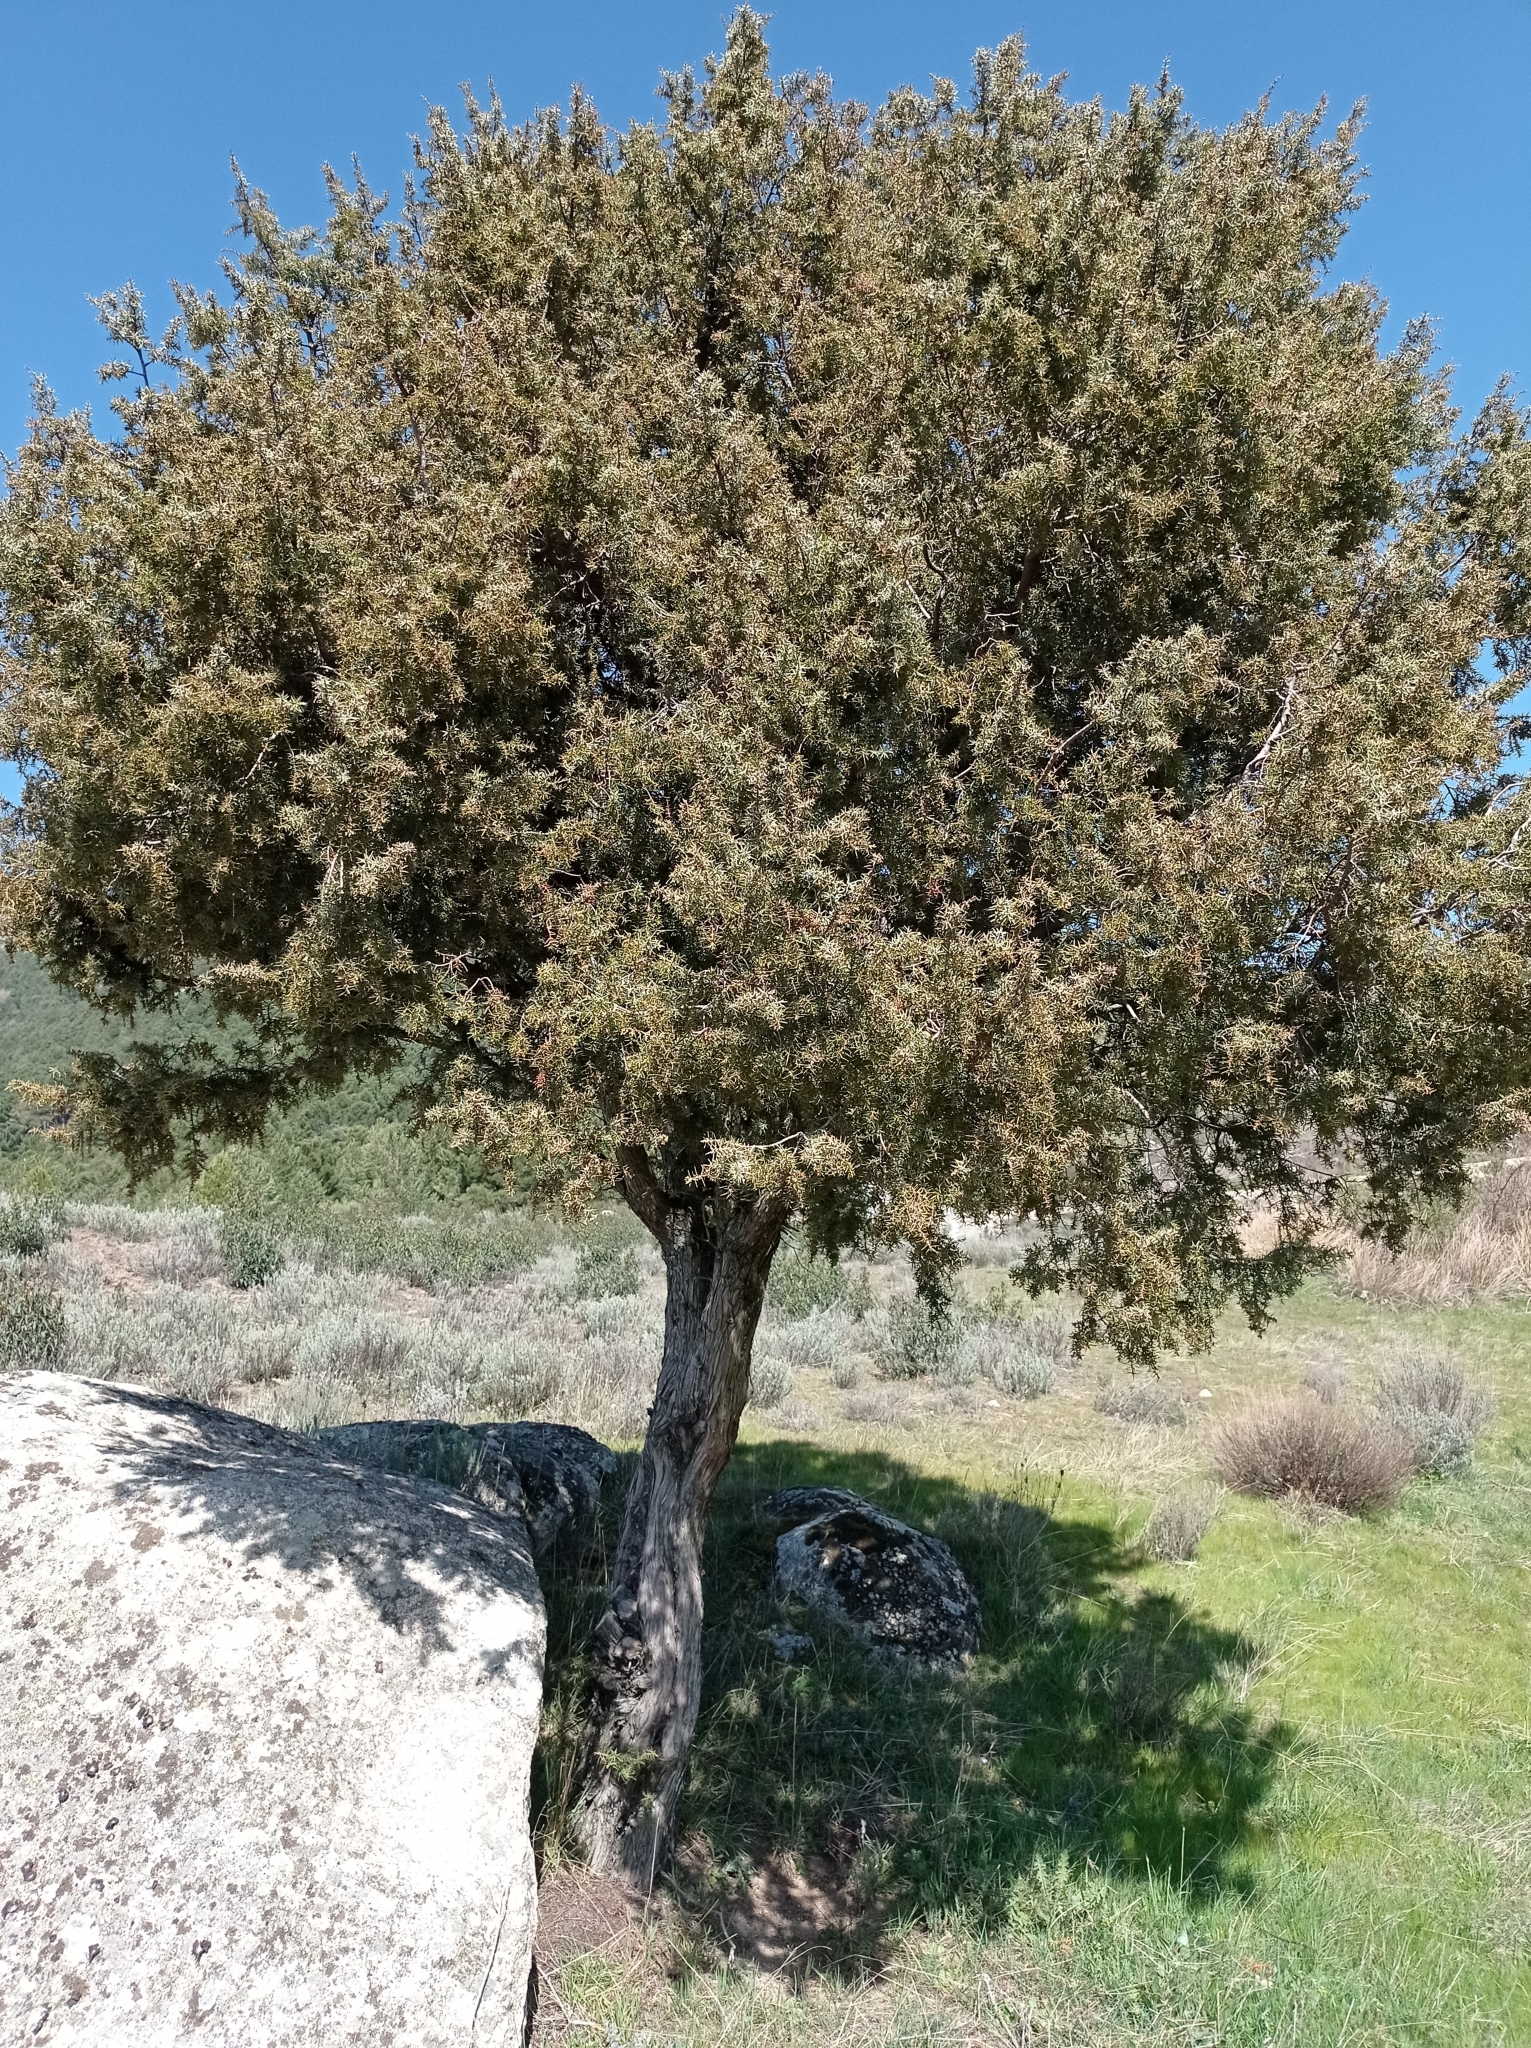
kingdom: Plantae
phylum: Tracheophyta
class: Pinopsida
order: Pinales
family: Cupressaceae
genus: Juniperus
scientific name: Juniperus oxycedrus
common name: Prickly juniper
